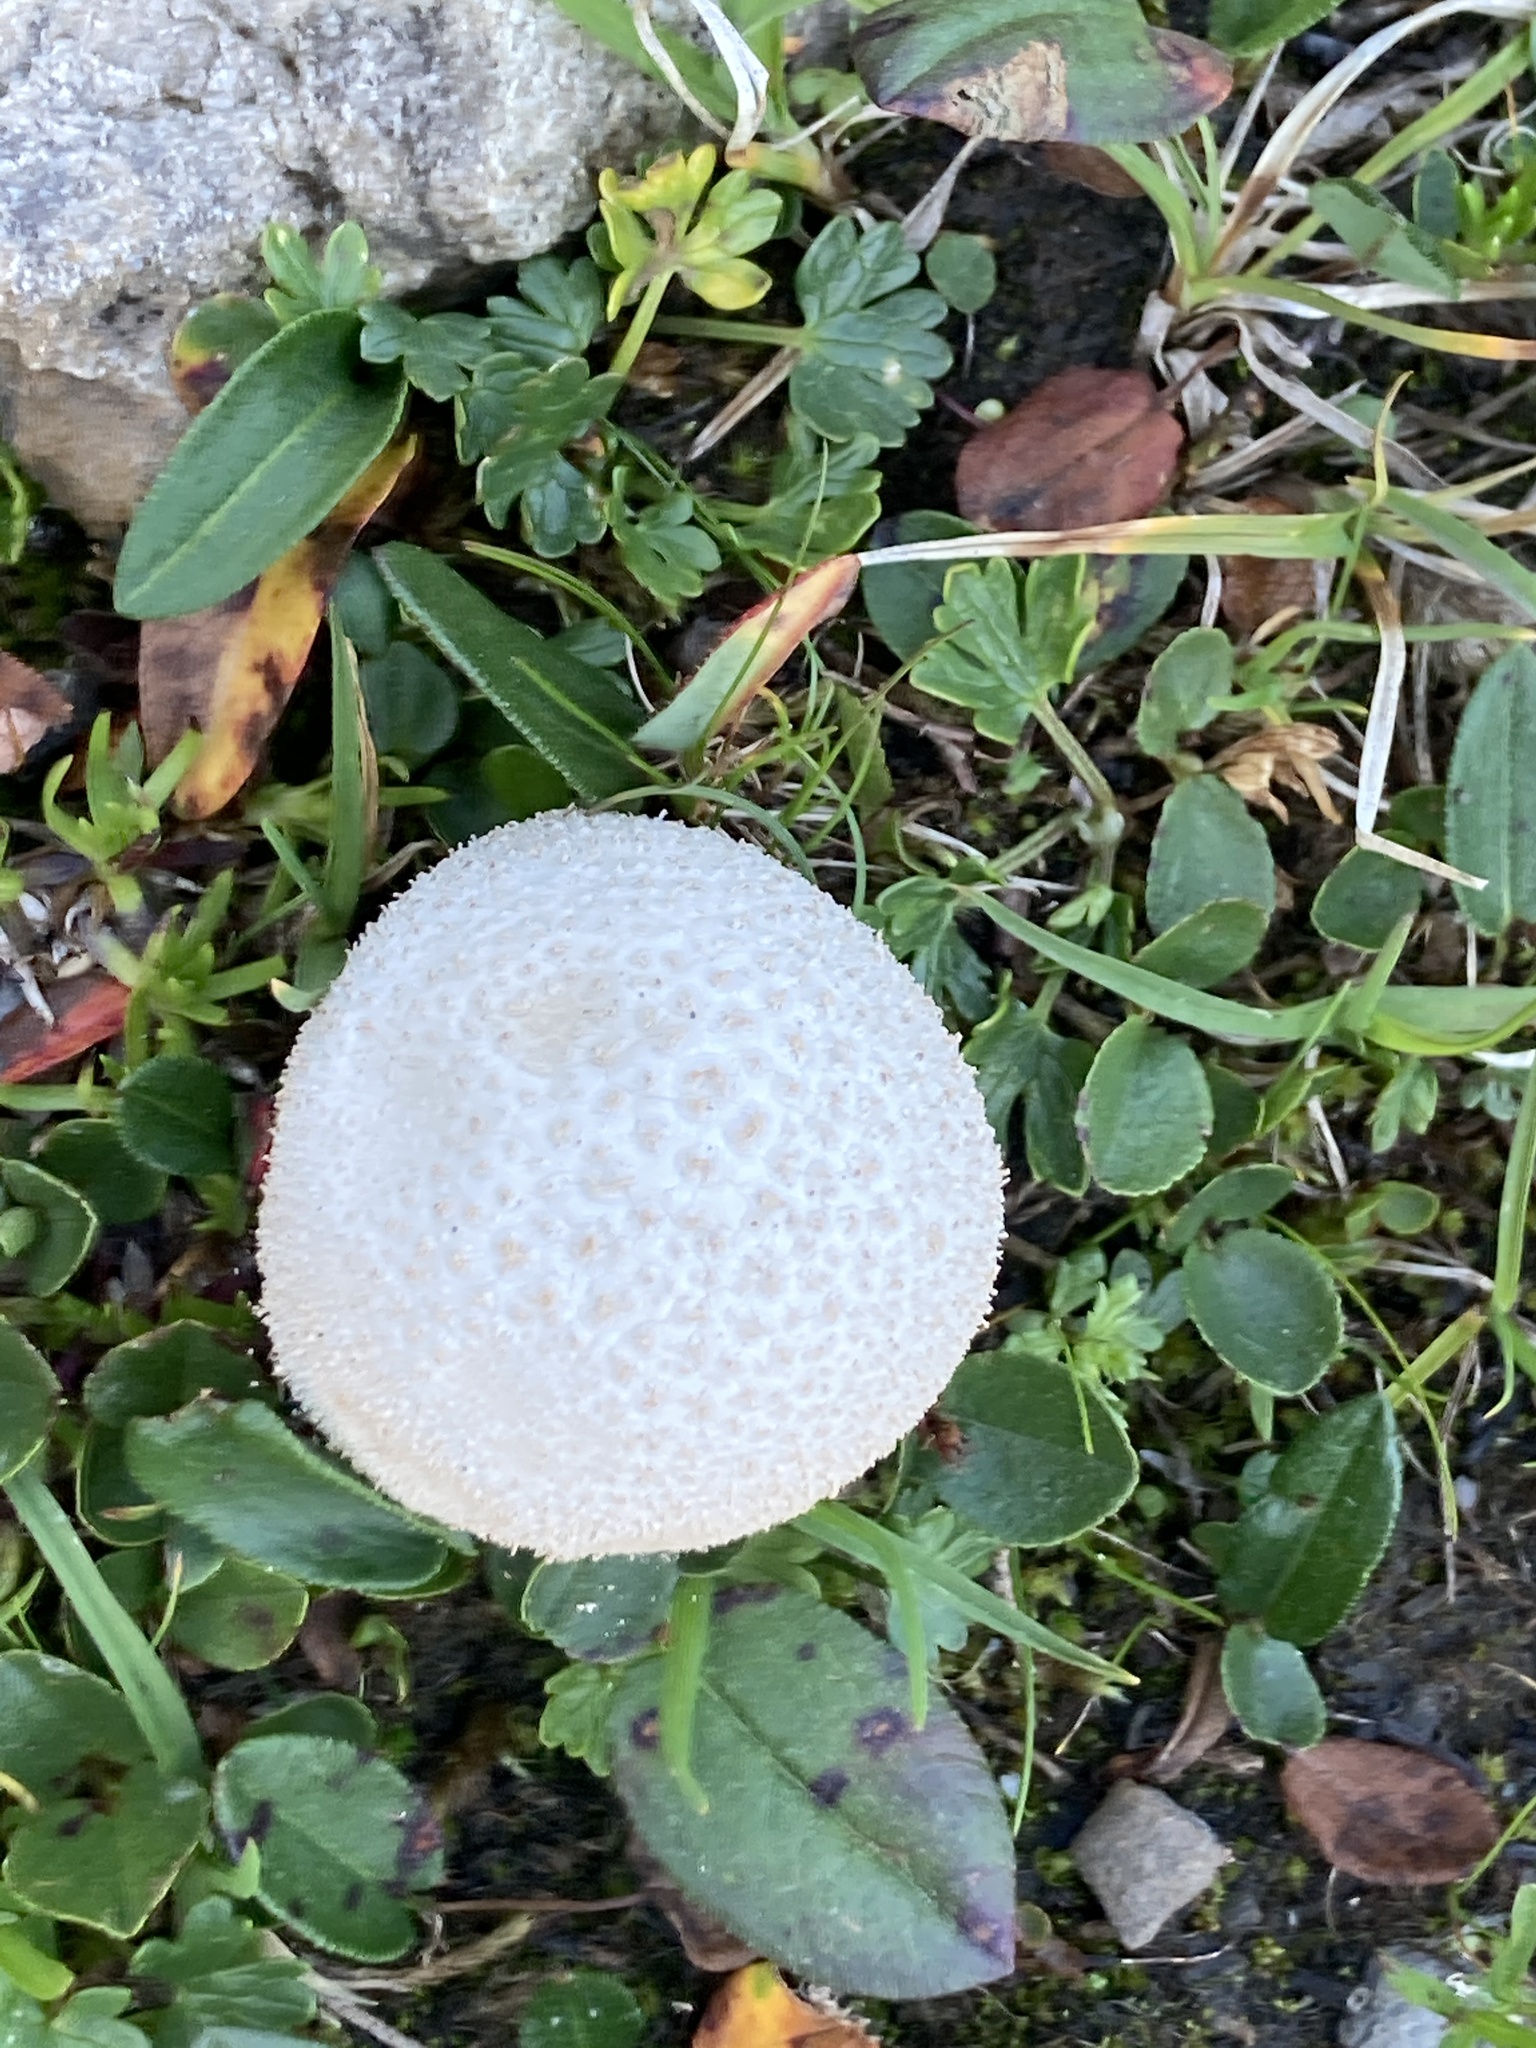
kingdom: Fungi
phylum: Basidiomycota
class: Agaricomycetes
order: Agaricales
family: Lycoperdaceae
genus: Lycoperdon
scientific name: Lycoperdon pratense
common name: Meadow puffball
